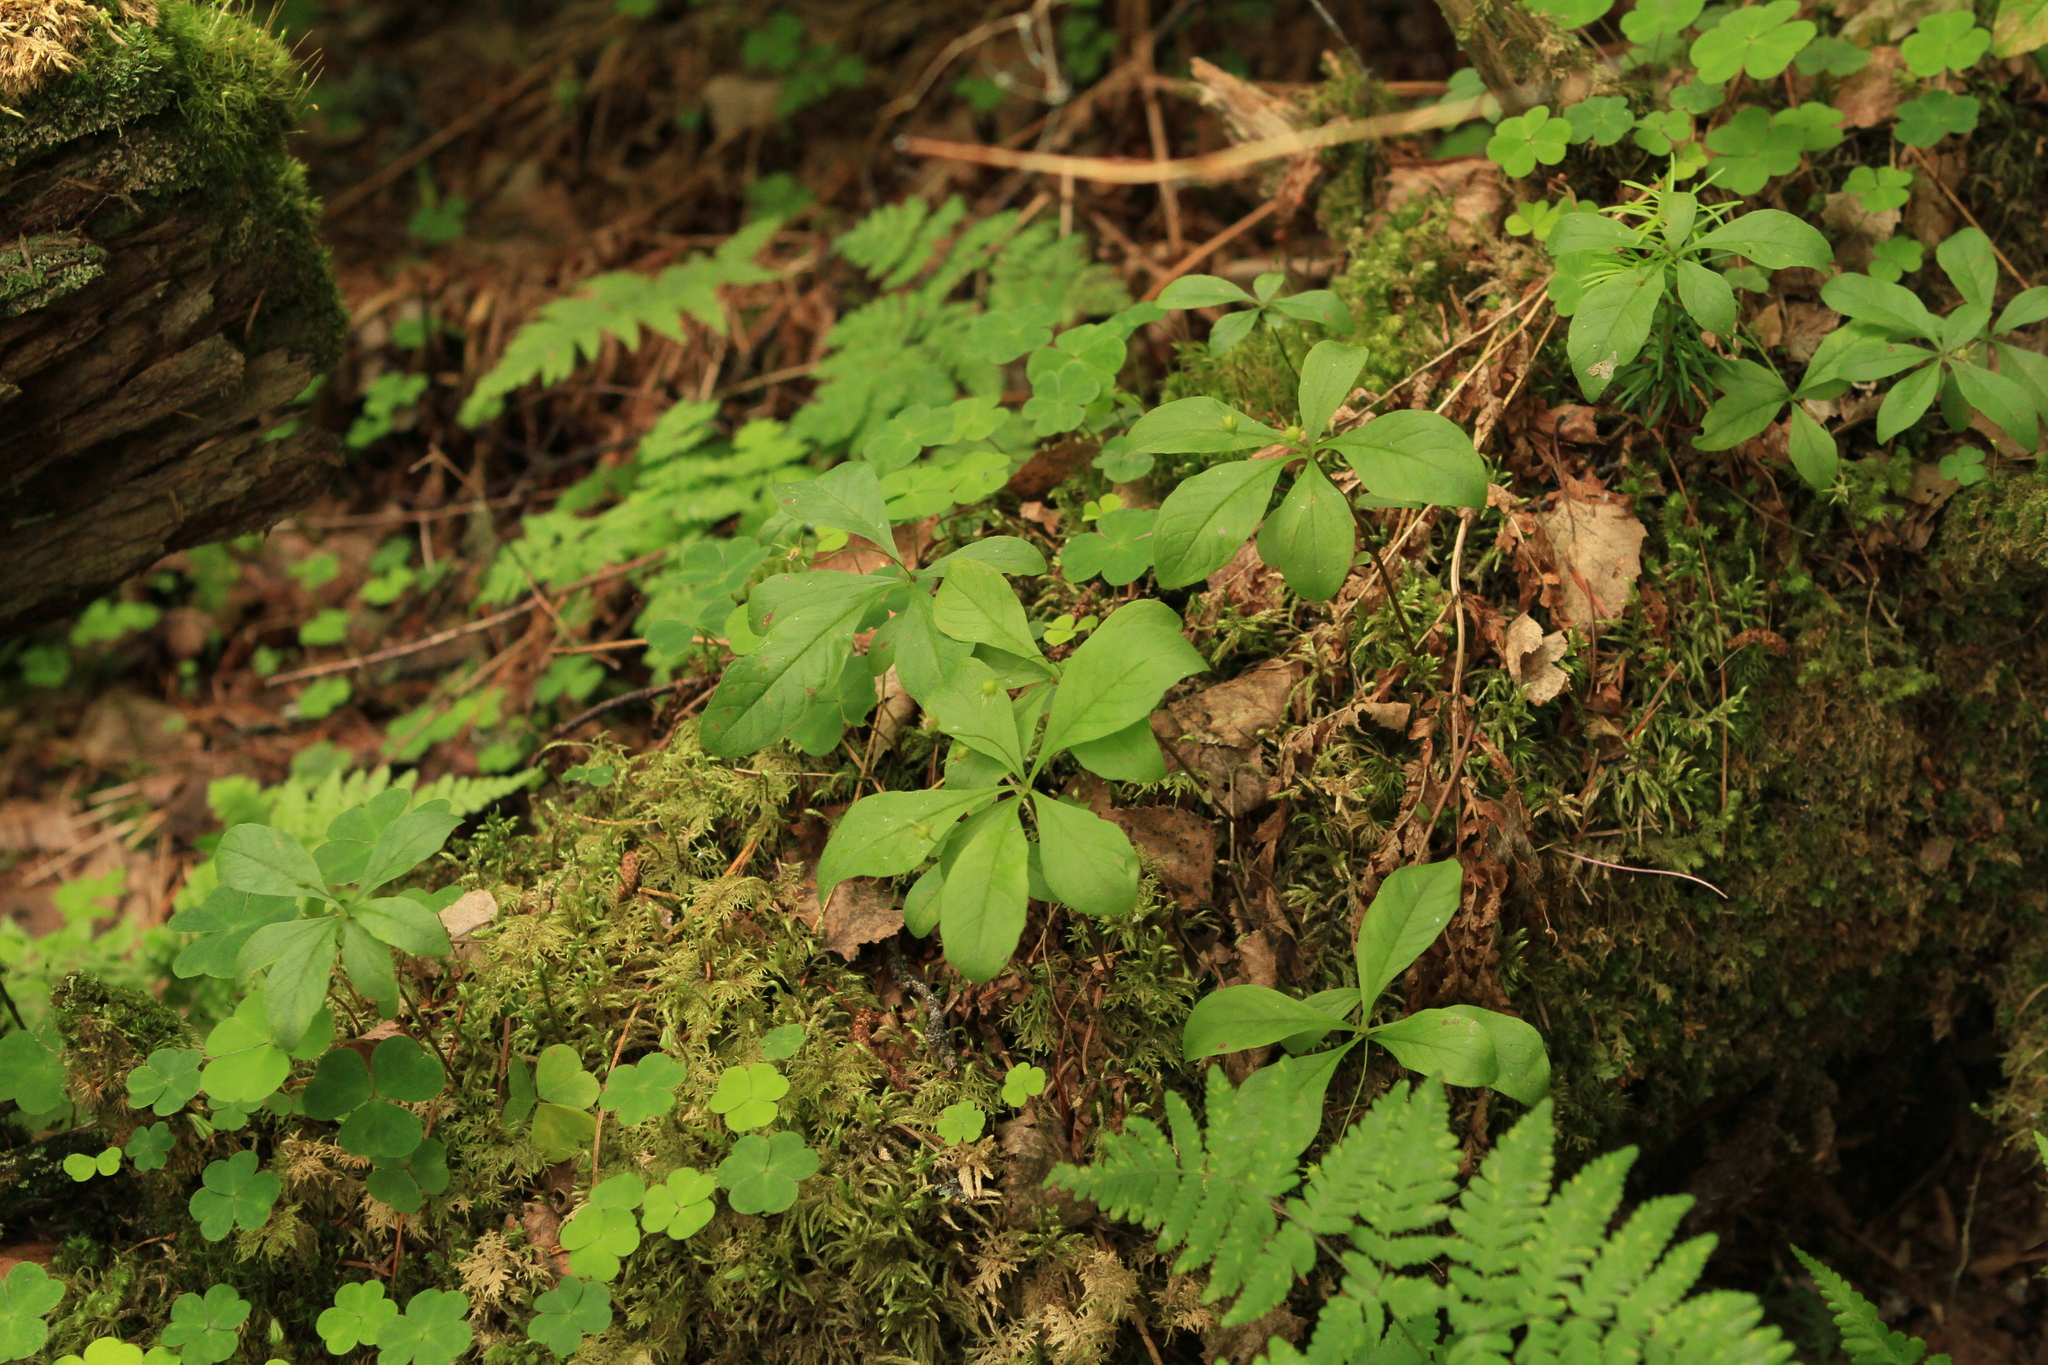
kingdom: Plantae
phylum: Tracheophyta
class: Magnoliopsida
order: Ericales
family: Primulaceae
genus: Lysimachia
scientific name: Lysimachia europaea
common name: Arctic starflower
